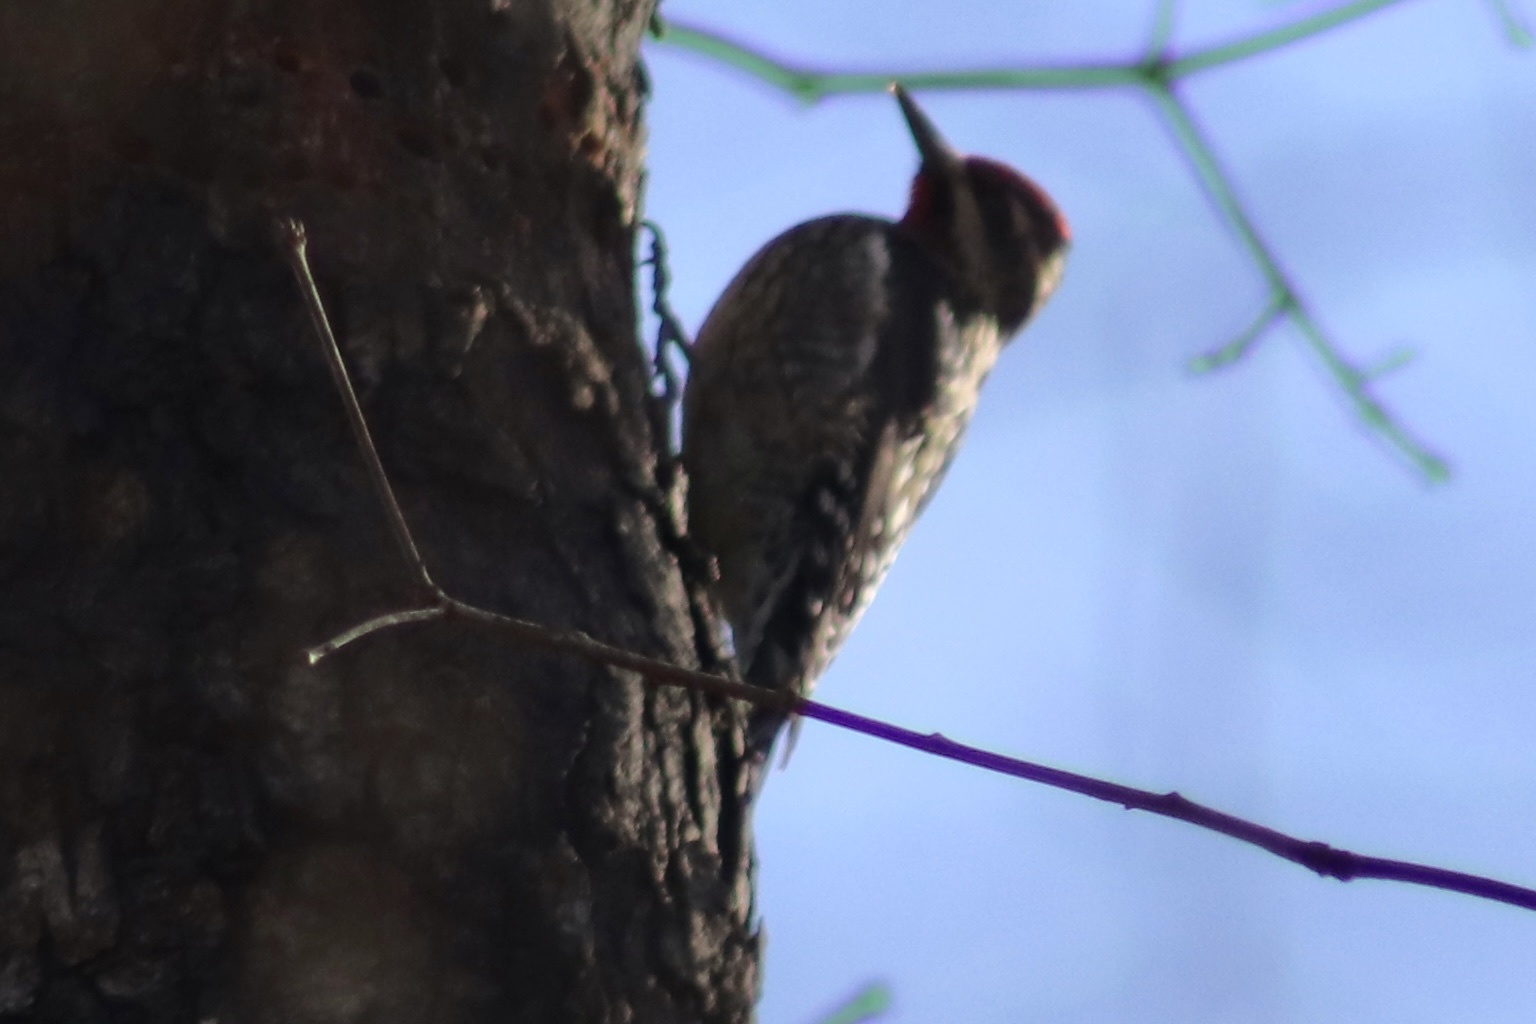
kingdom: Animalia
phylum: Chordata
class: Aves
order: Piciformes
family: Picidae
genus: Sphyrapicus
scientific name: Sphyrapicus varius
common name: Yellow-bellied sapsucker
